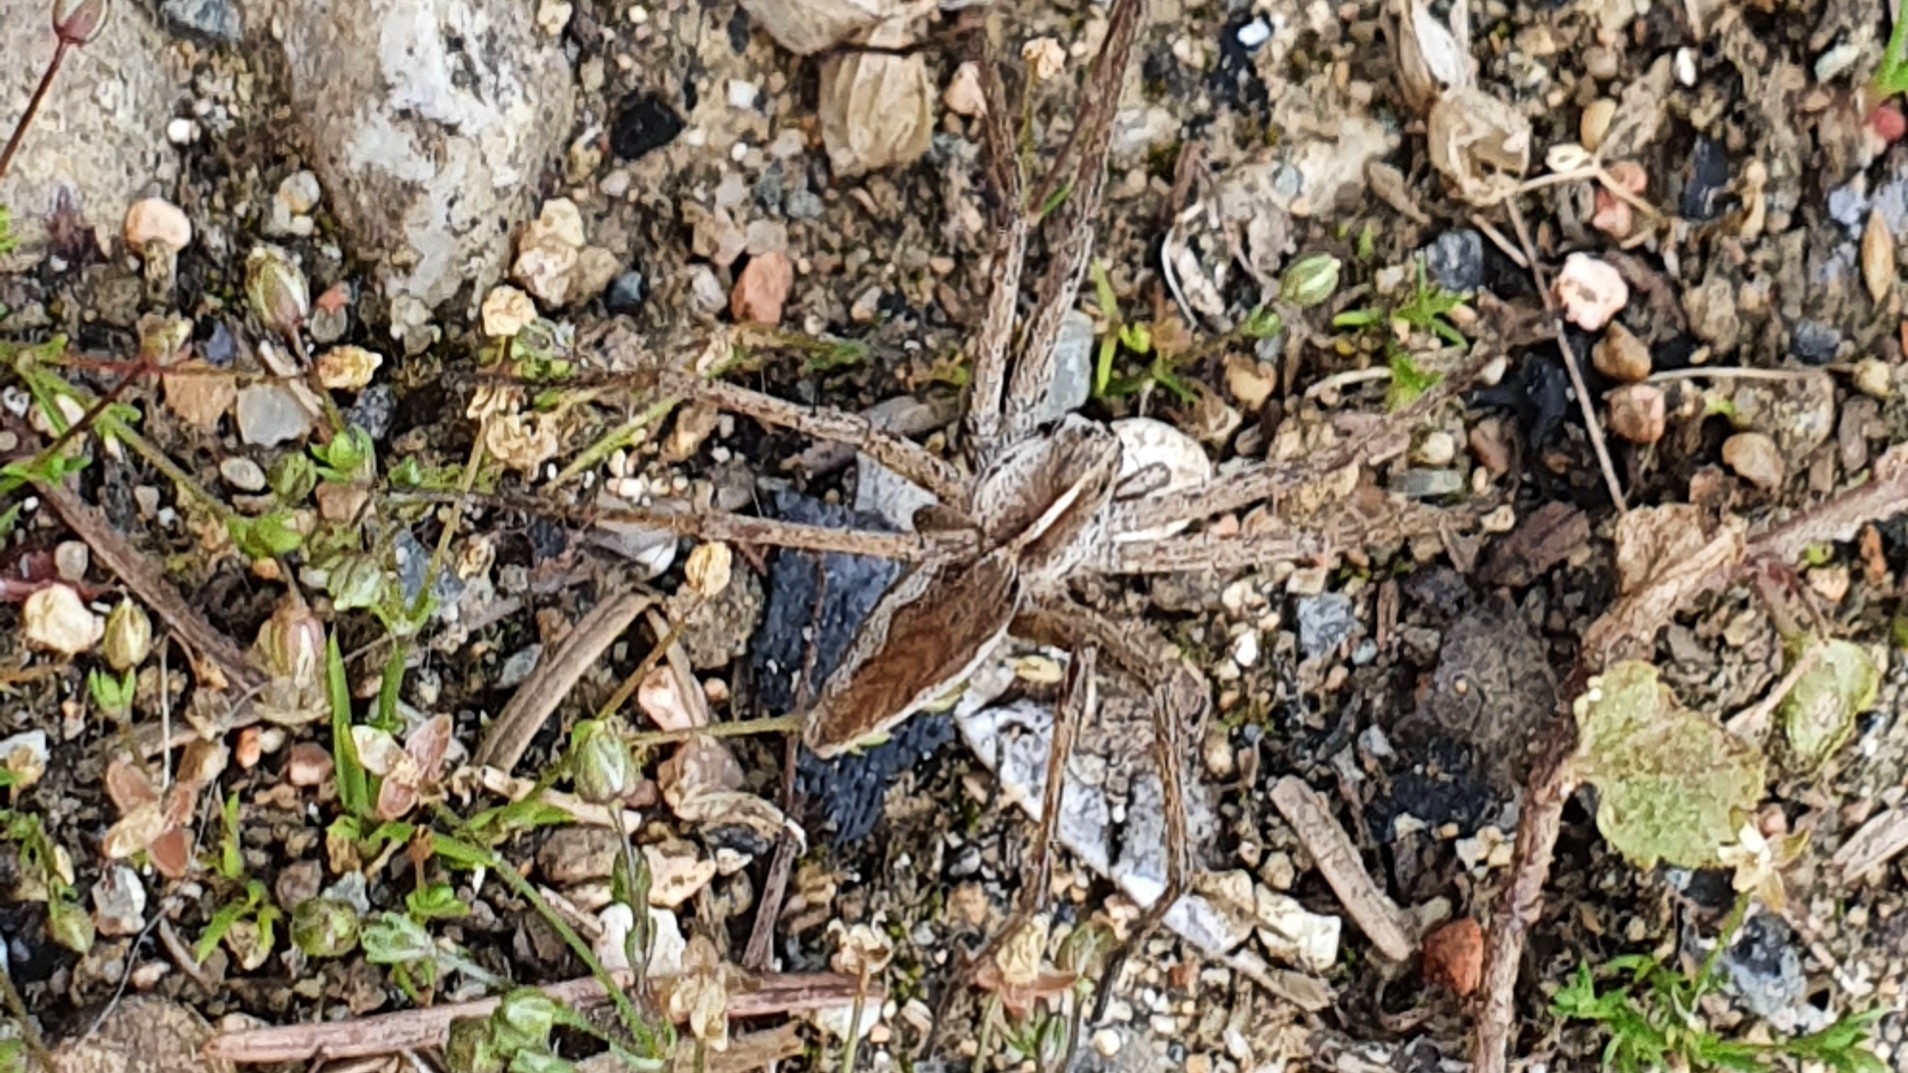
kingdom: Animalia
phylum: Arthropoda
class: Arachnida
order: Araneae
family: Pisauridae
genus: Pisaura
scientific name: Pisaura mirabilis
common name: Tent spider
